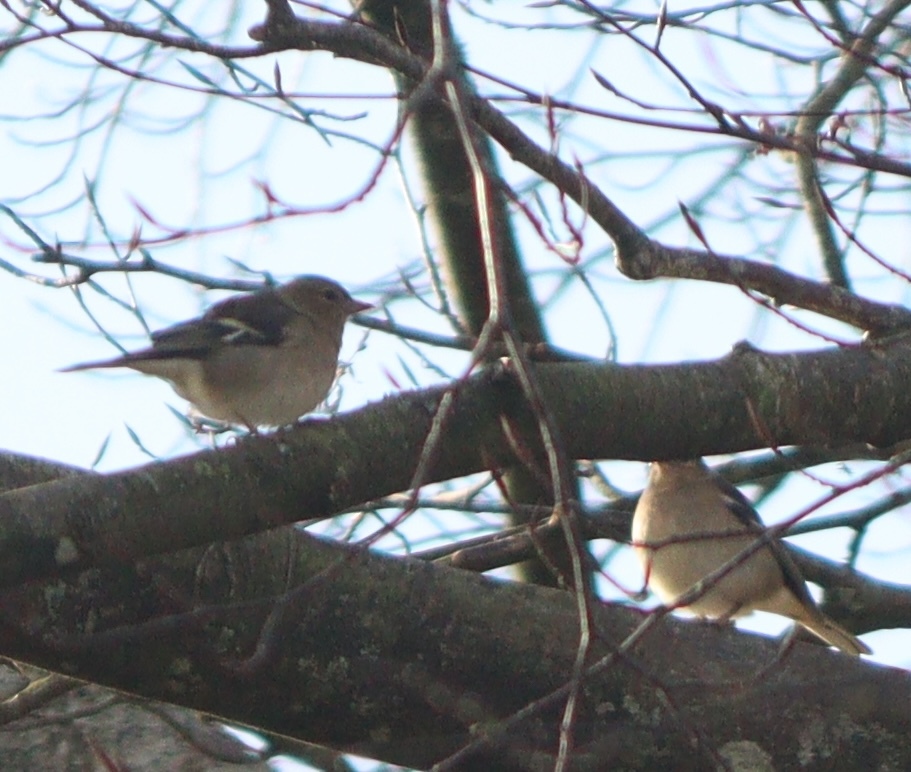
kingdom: Animalia
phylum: Chordata
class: Aves
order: Passeriformes
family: Fringillidae
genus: Fringilla
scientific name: Fringilla coelebs
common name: Common chaffinch
